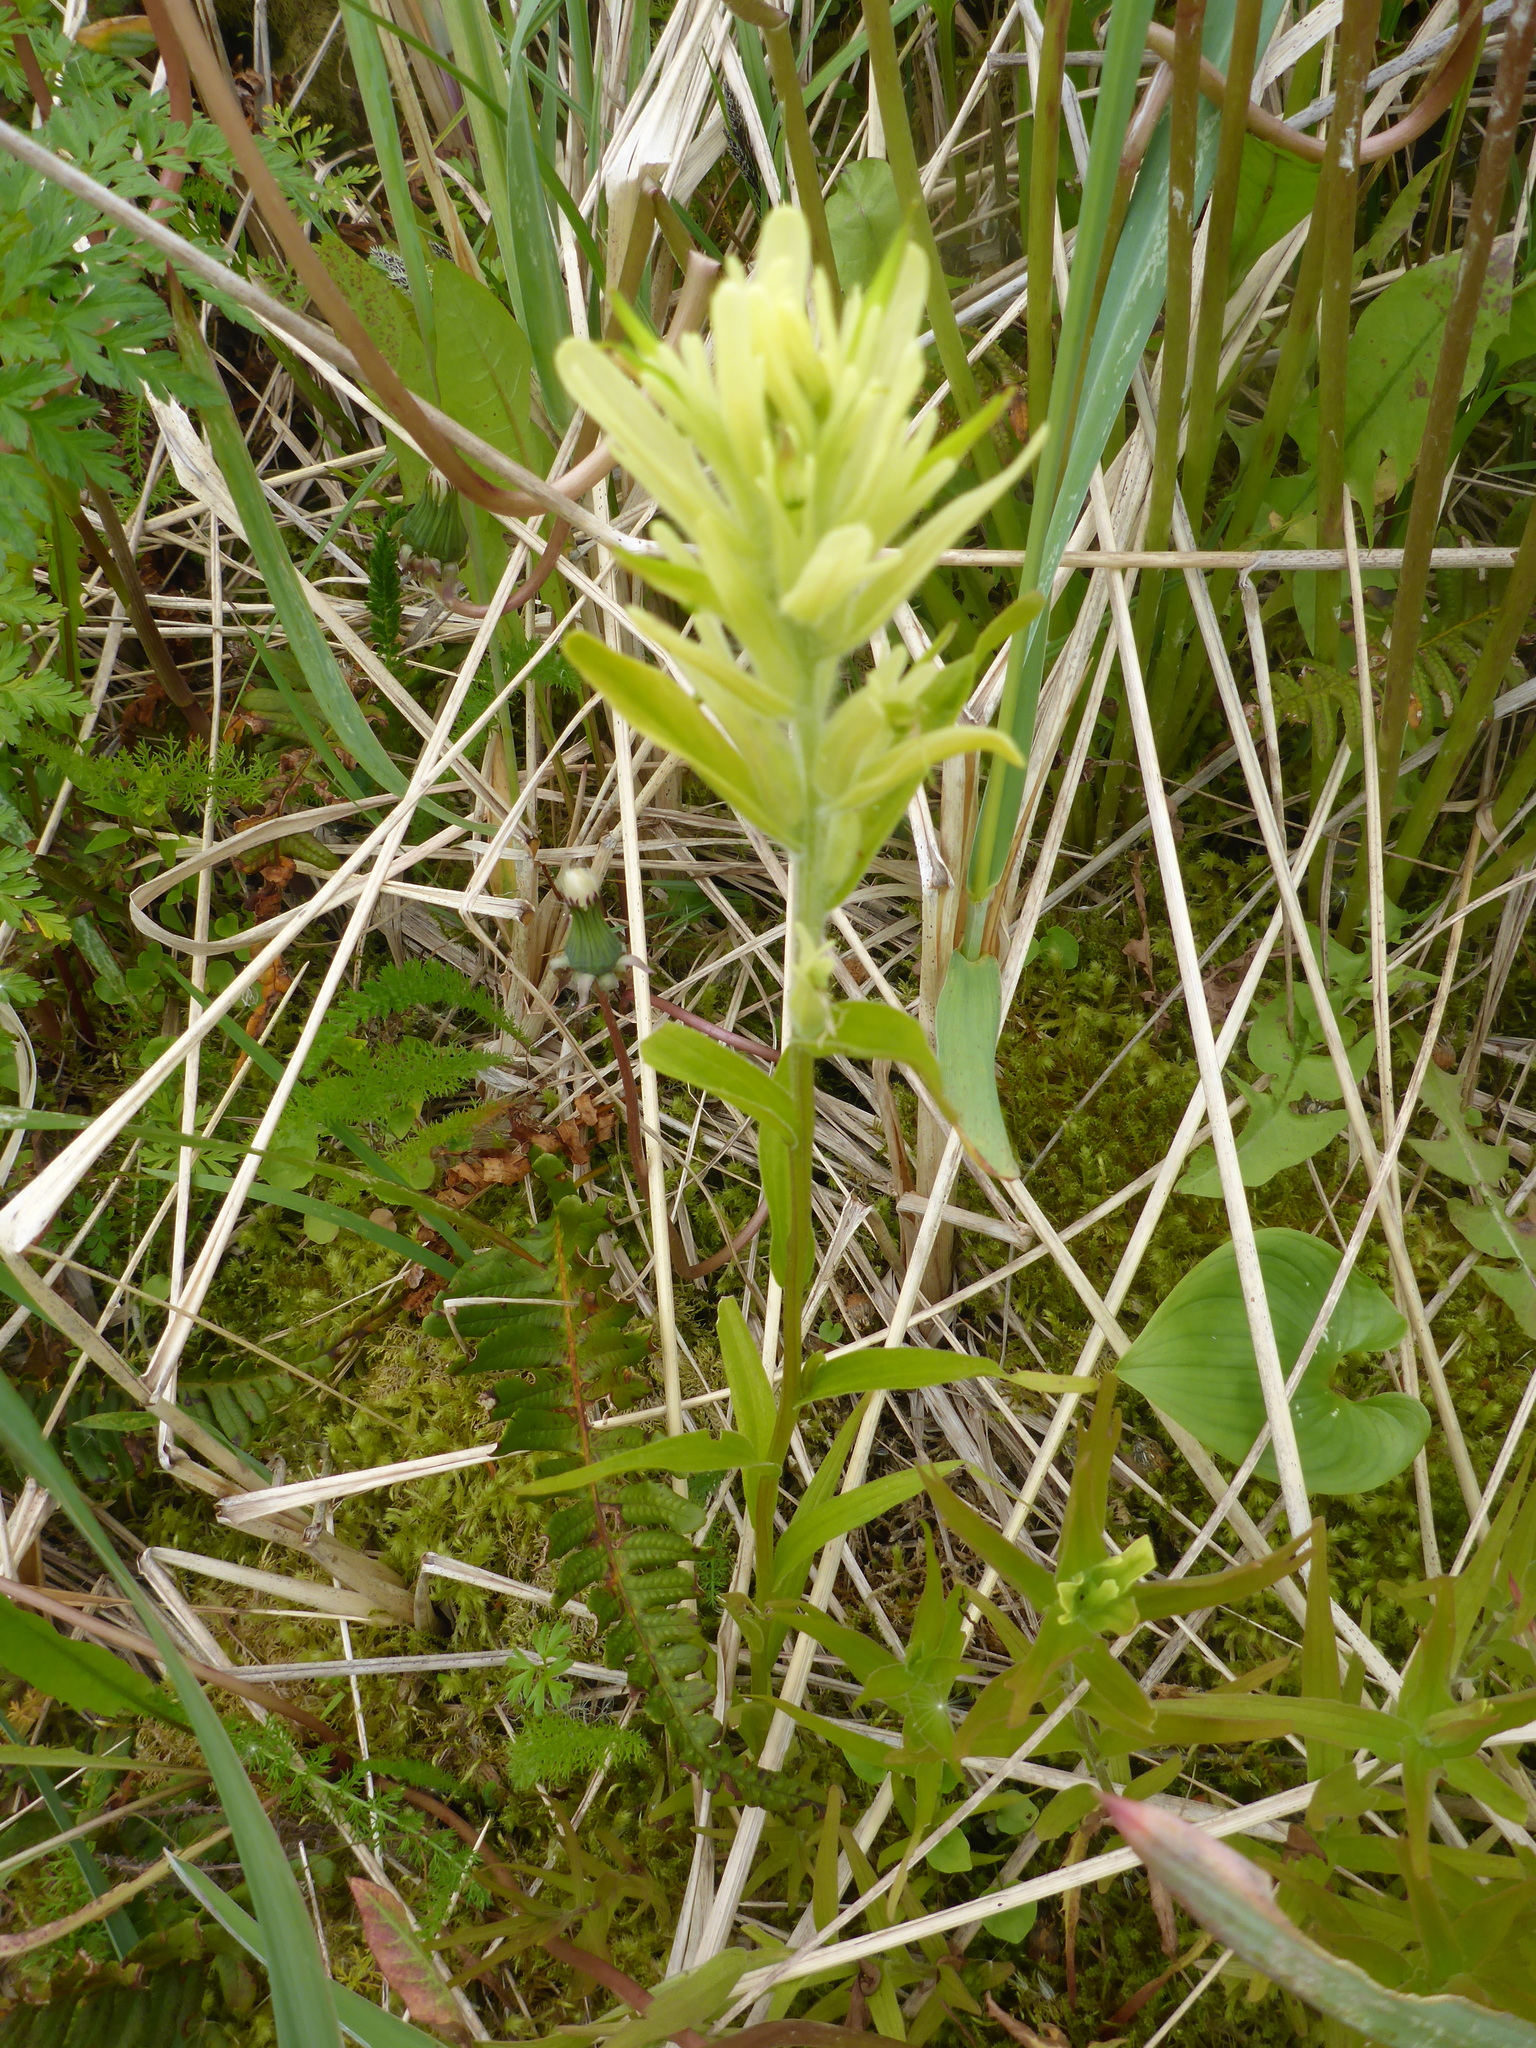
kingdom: Plantae
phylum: Tracheophyta
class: Magnoliopsida
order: Lamiales
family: Orobanchaceae
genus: Castilleja
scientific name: Castilleja unalaschcensis
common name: Unalaska paintbrush
